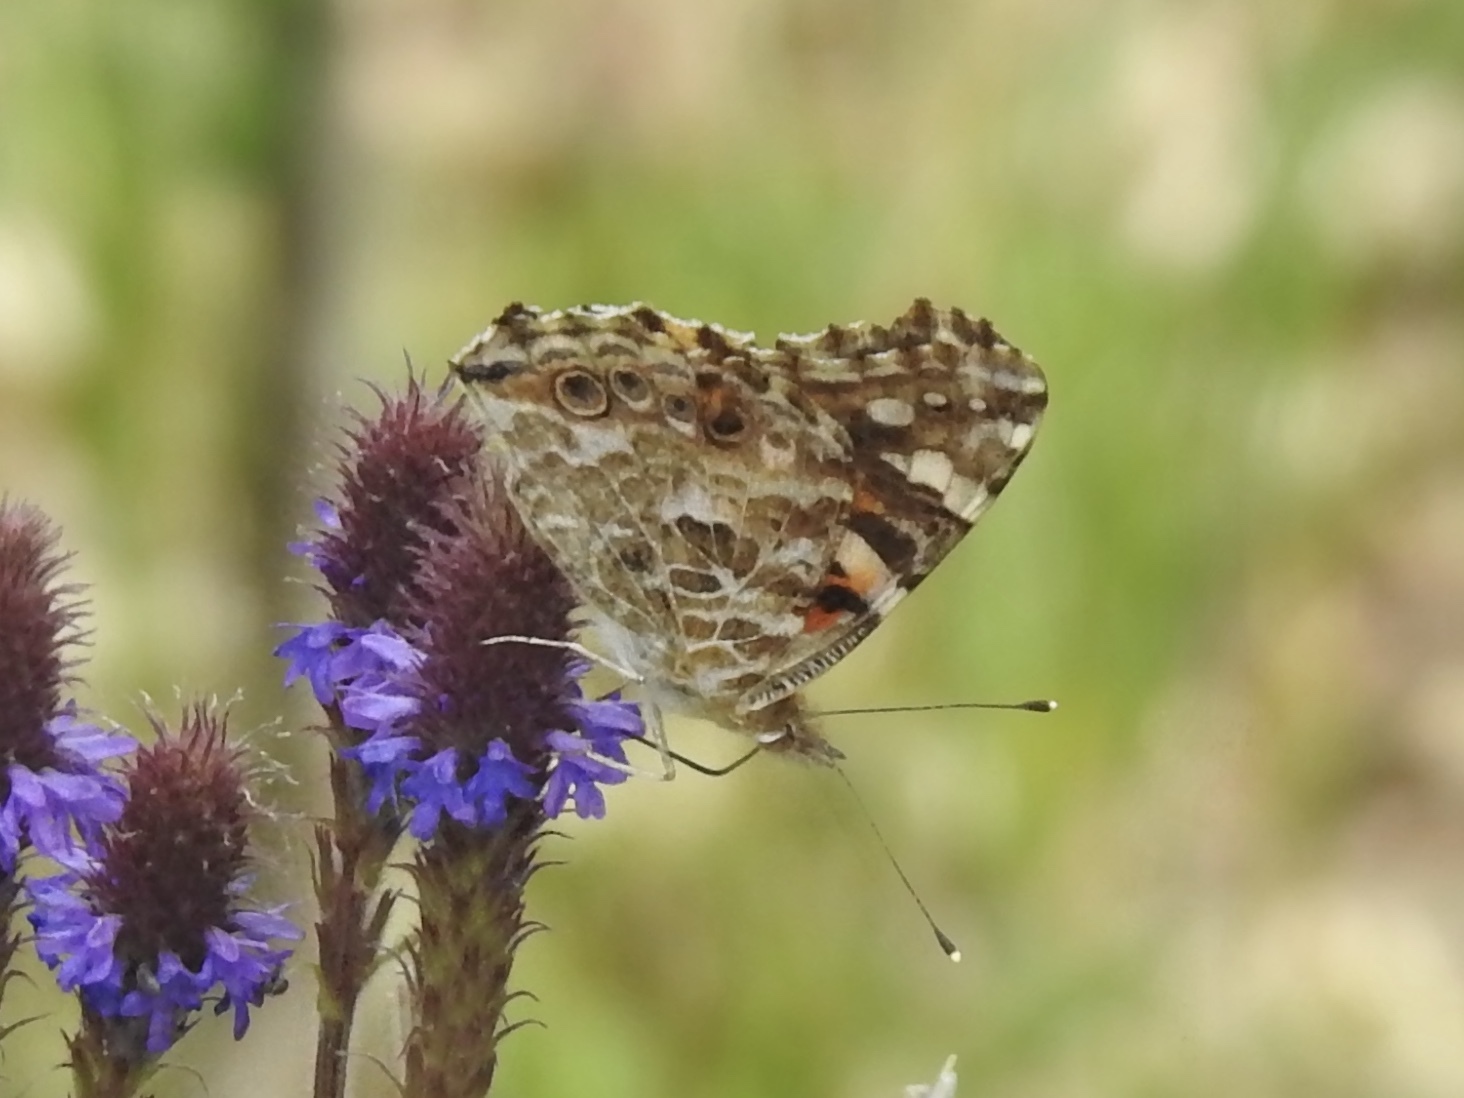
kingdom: Animalia
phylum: Arthropoda
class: Insecta
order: Lepidoptera
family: Nymphalidae
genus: Vanessa
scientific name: Vanessa cardui
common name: Painted lady
